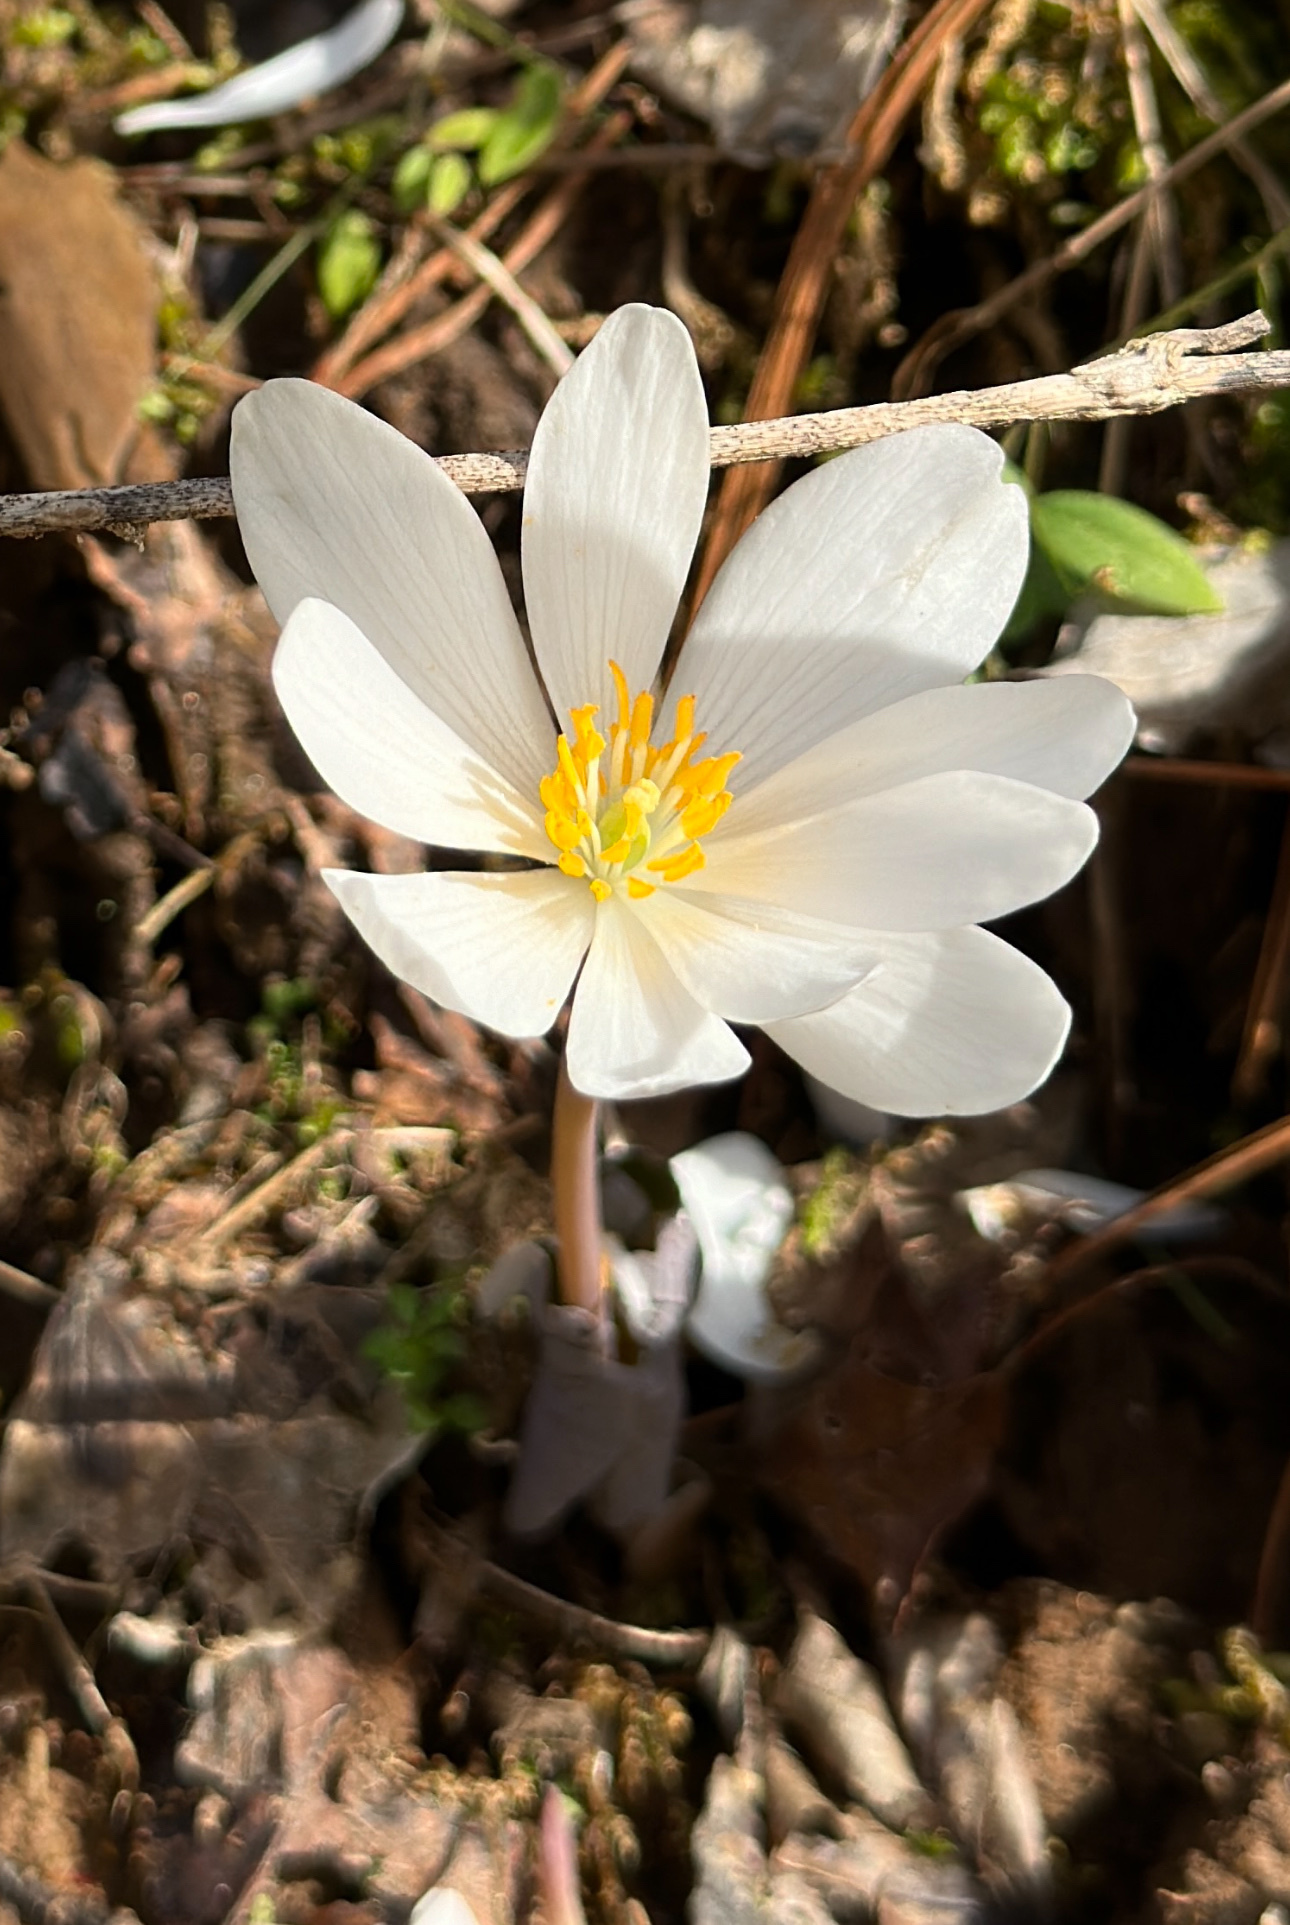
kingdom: Plantae
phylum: Tracheophyta
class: Magnoliopsida
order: Ranunculales
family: Papaveraceae
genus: Sanguinaria
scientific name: Sanguinaria canadensis
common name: Bloodroot
